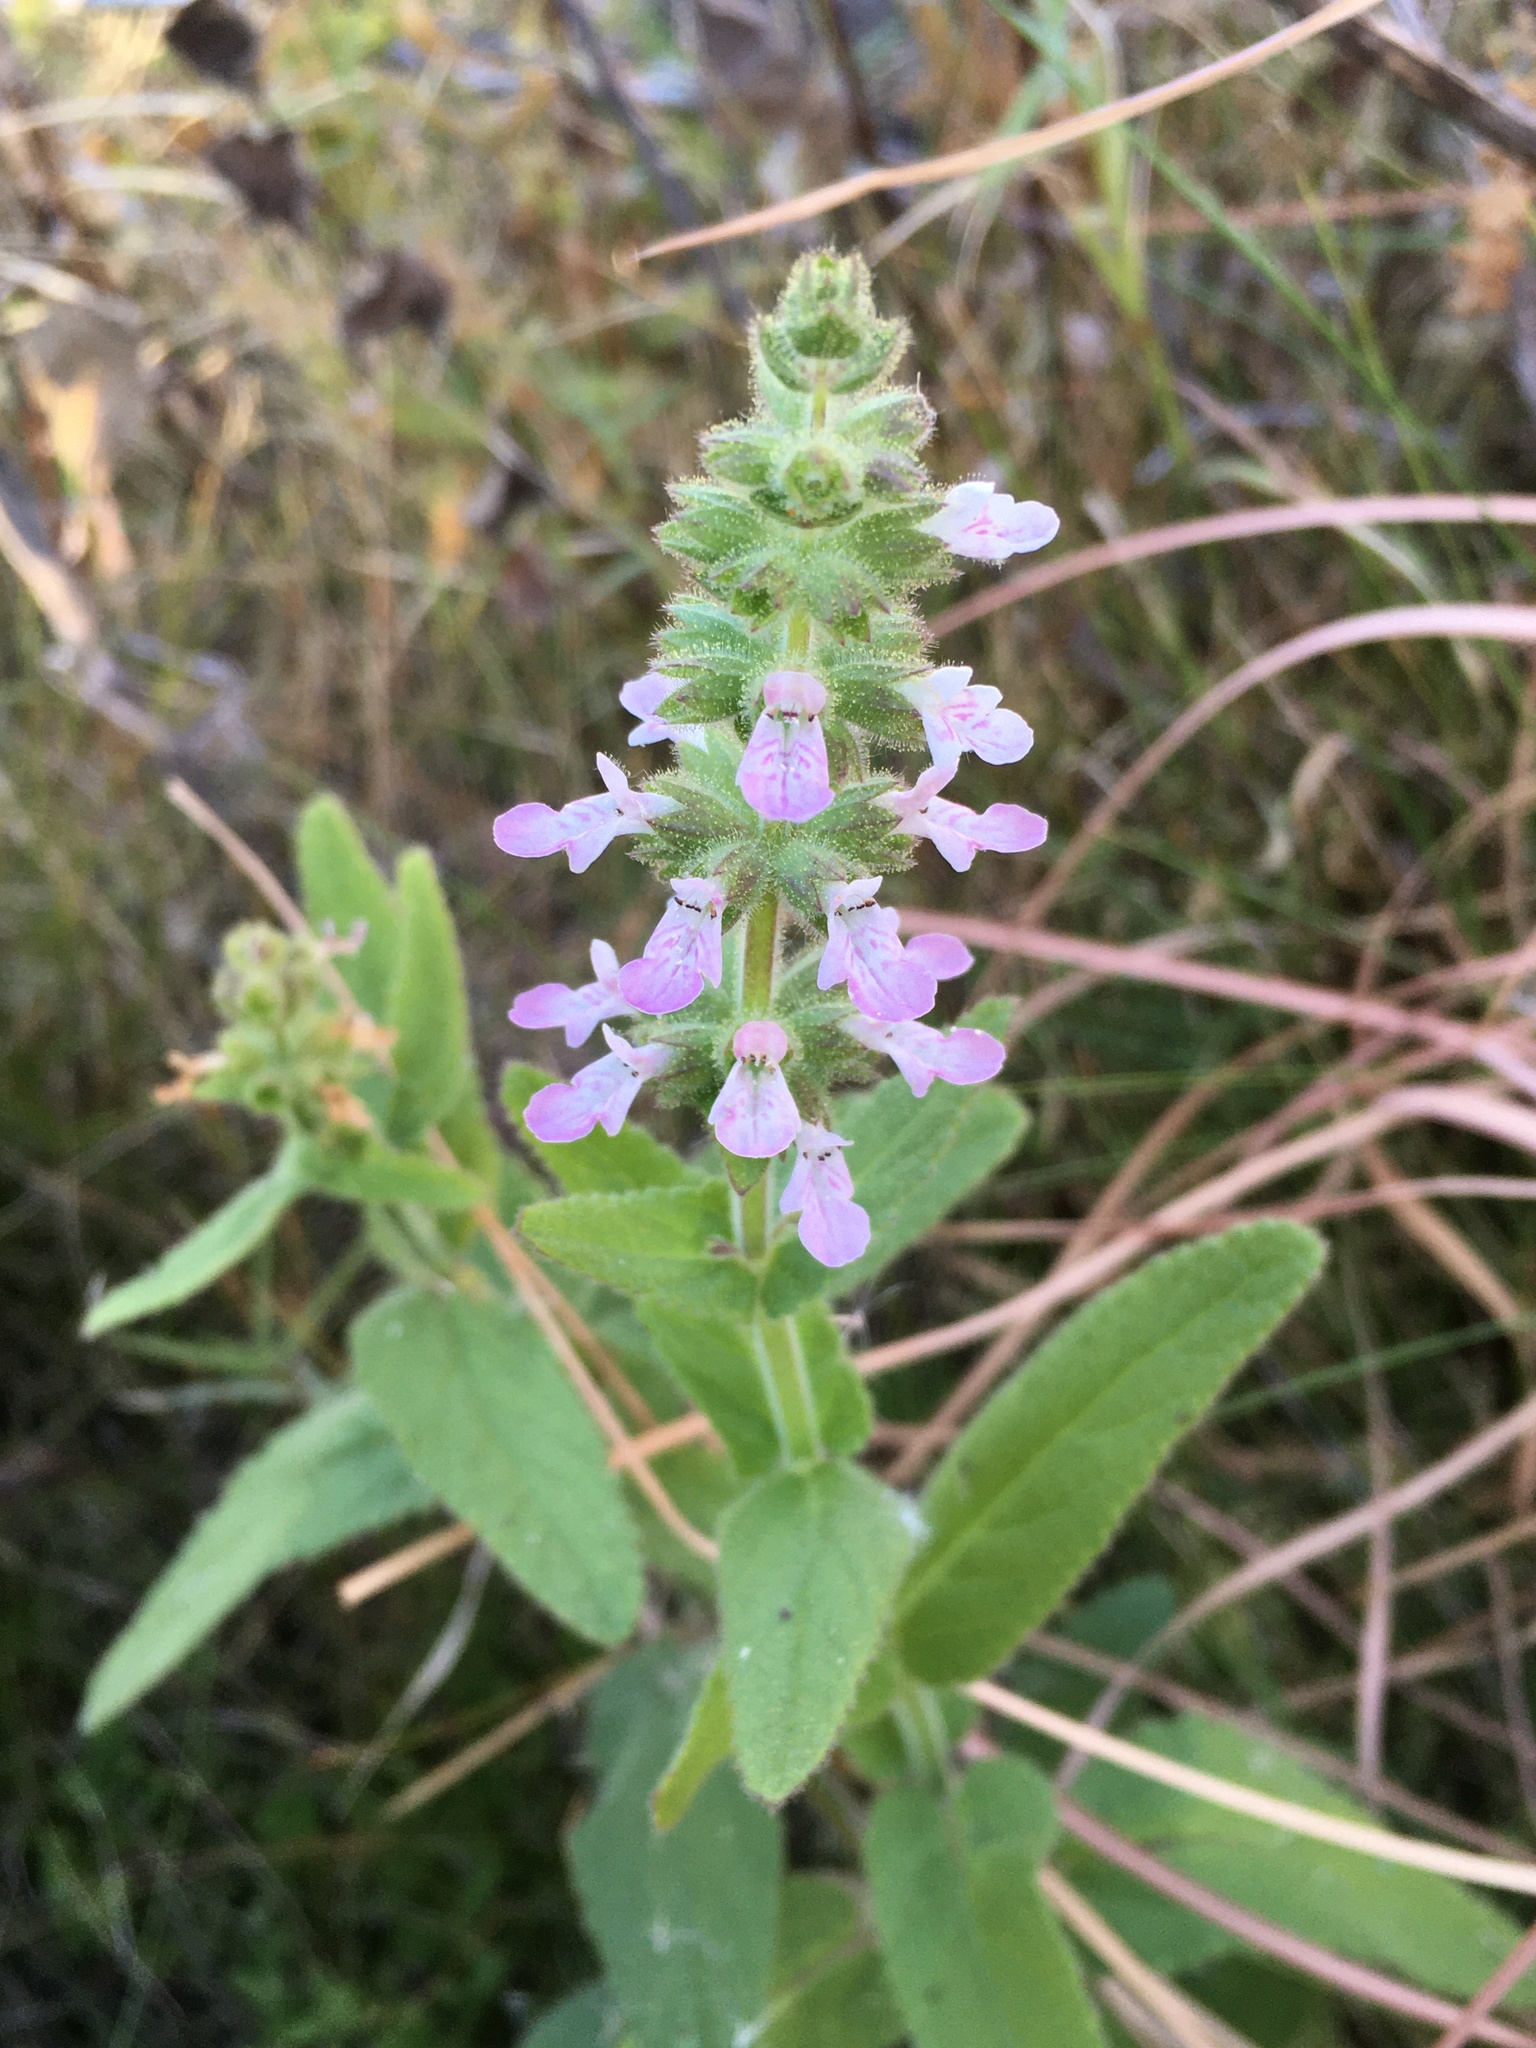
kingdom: Plantae
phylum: Tracheophyta
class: Magnoliopsida
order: Lamiales
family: Lamiaceae
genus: Stachys
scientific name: Stachys stricta
